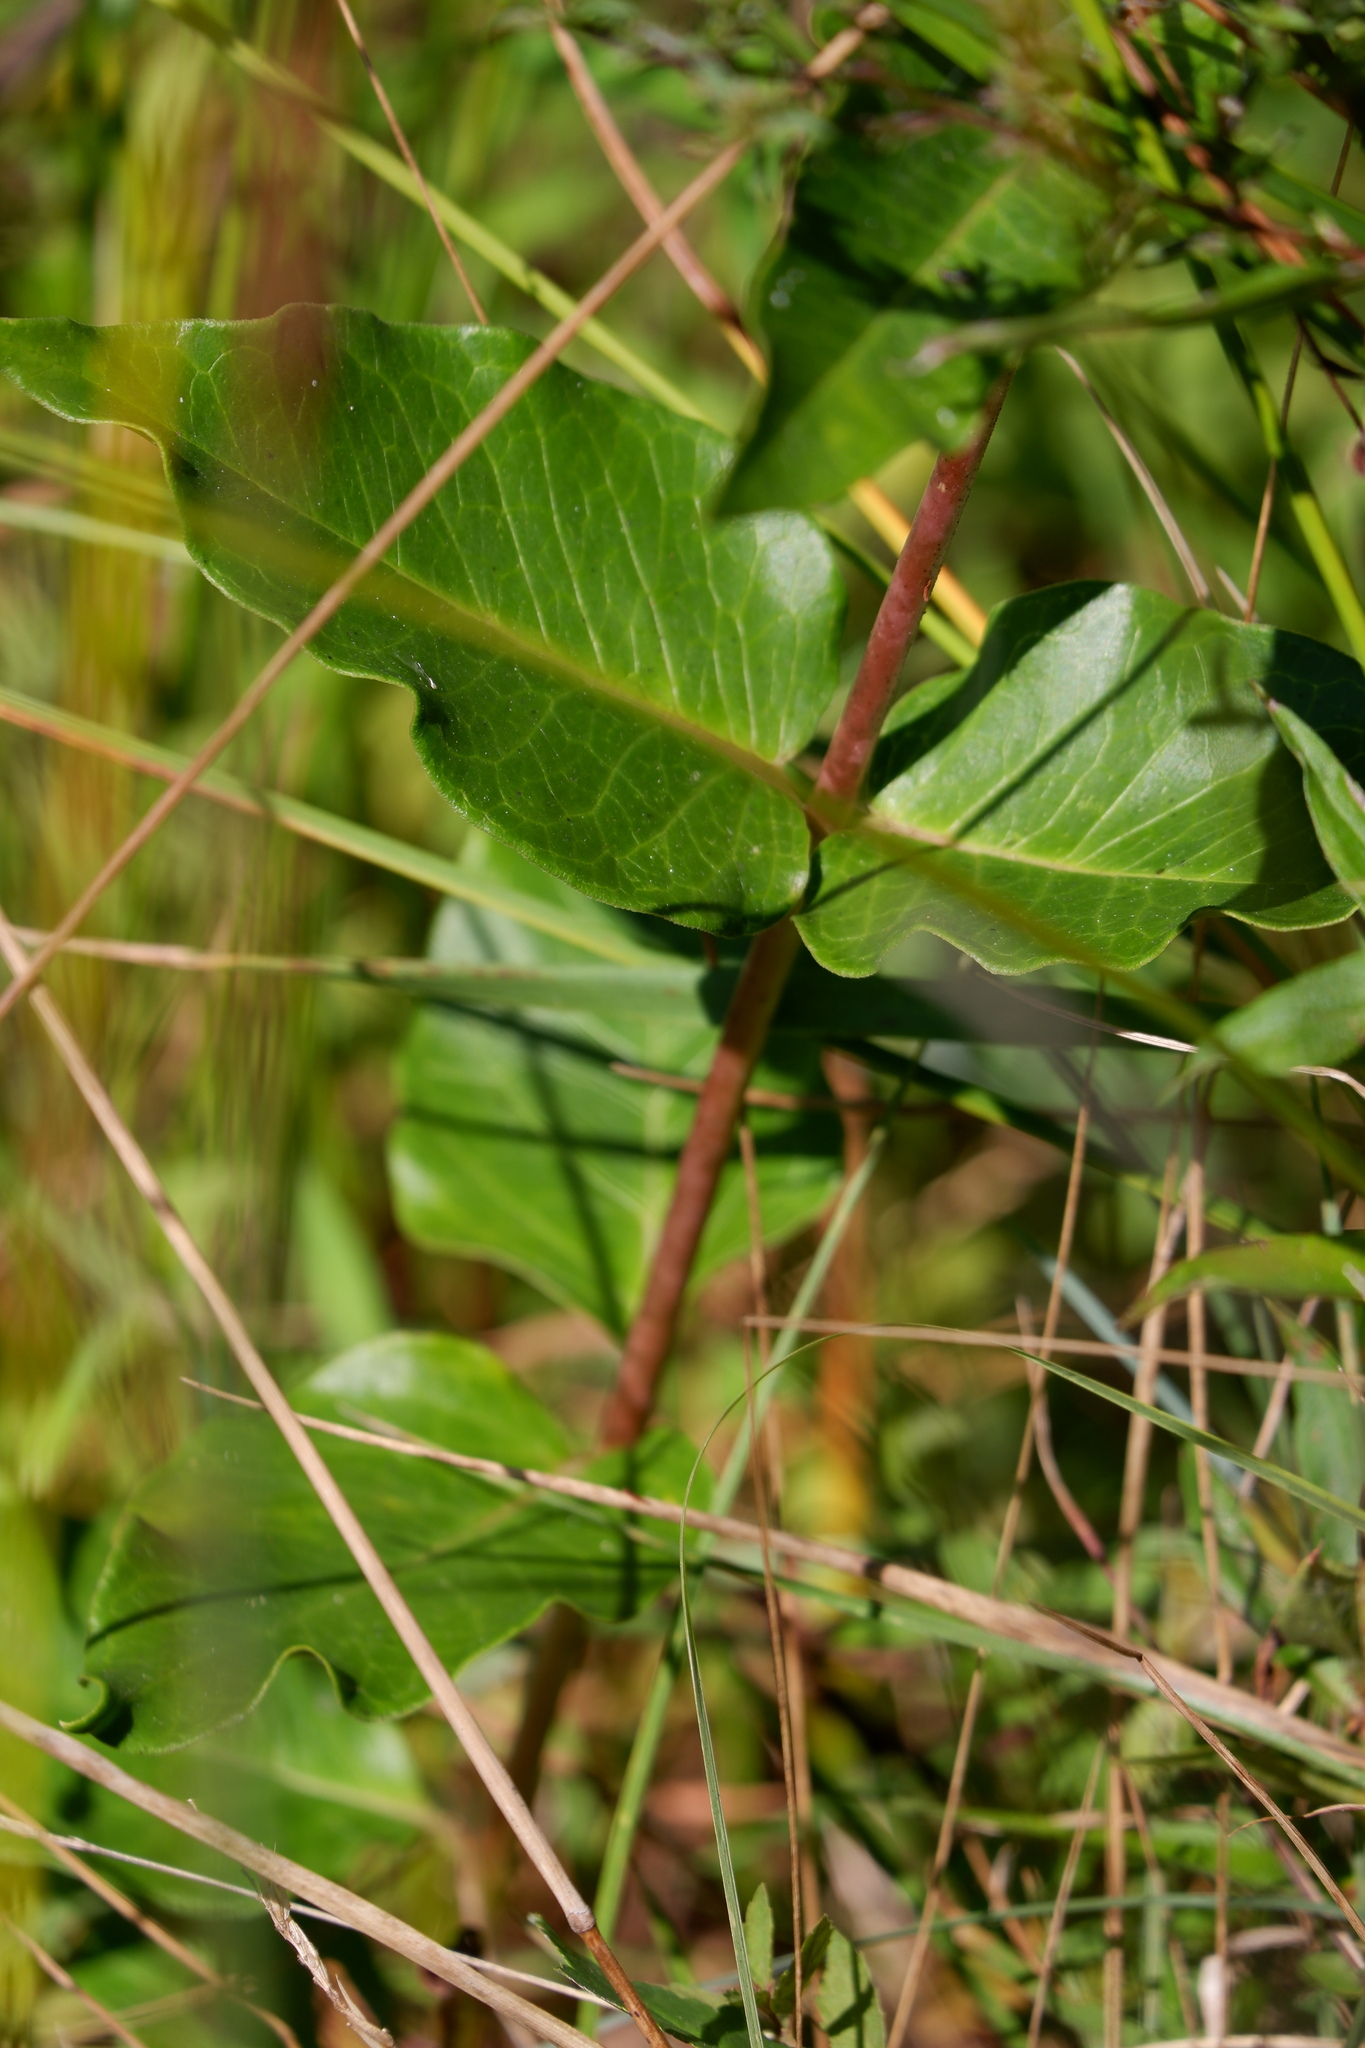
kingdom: Plantae
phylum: Tracheophyta
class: Magnoliopsida
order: Gentianales
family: Apocynaceae
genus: Asclepias
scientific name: Asclepias rubra
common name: Red milkweed
